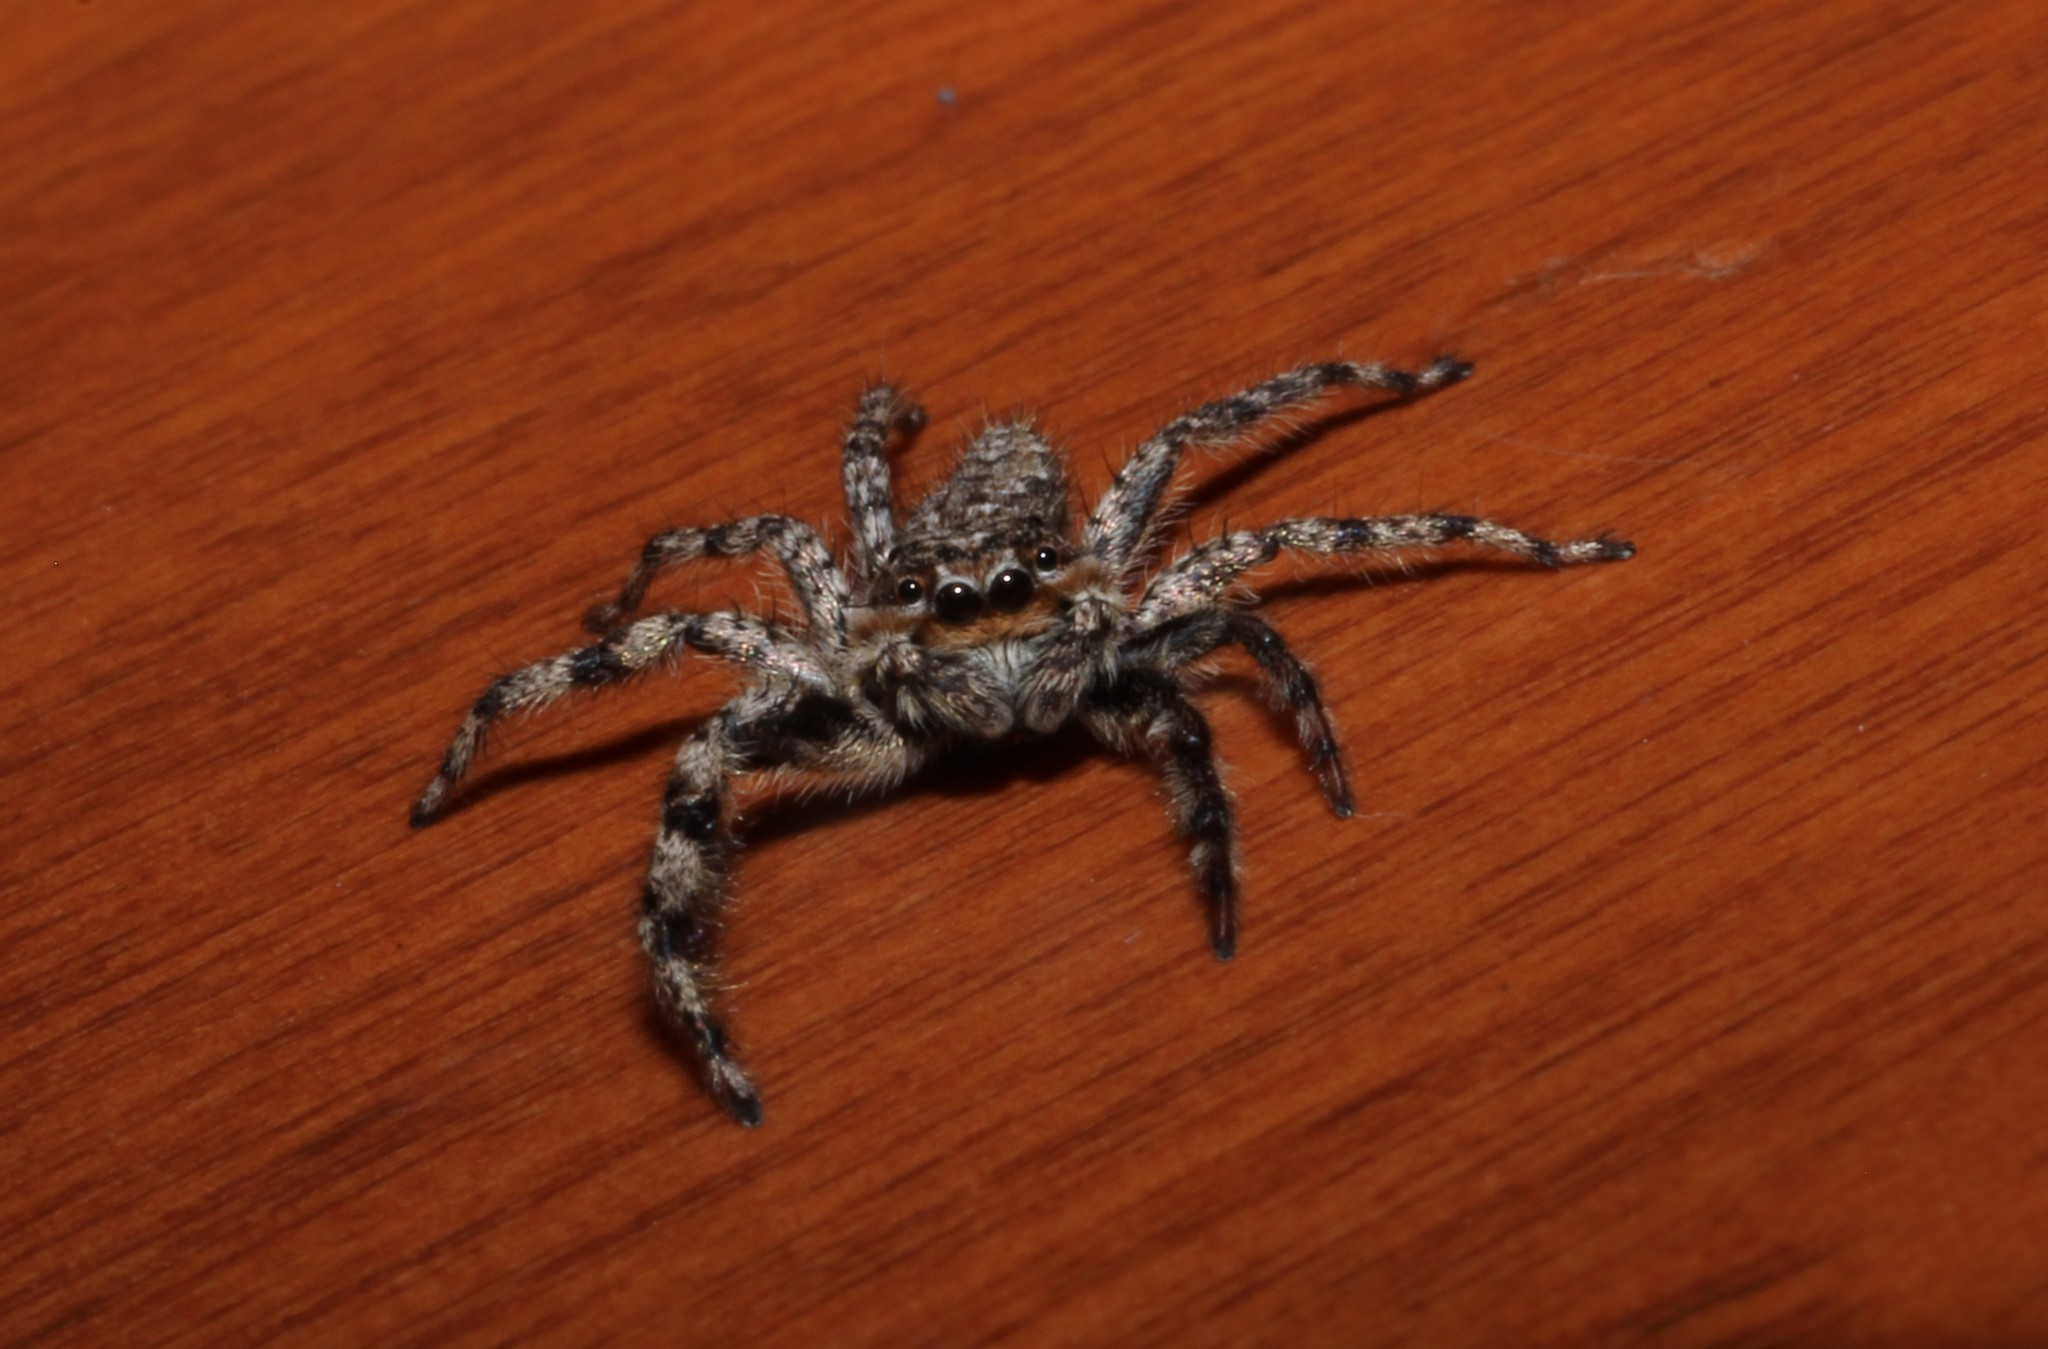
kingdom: Animalia
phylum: Arthropoda
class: Arachnida
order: Araneae
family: Salticidae
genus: Platycryptus
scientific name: Platycryptus undatus
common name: Tan jumping spider
